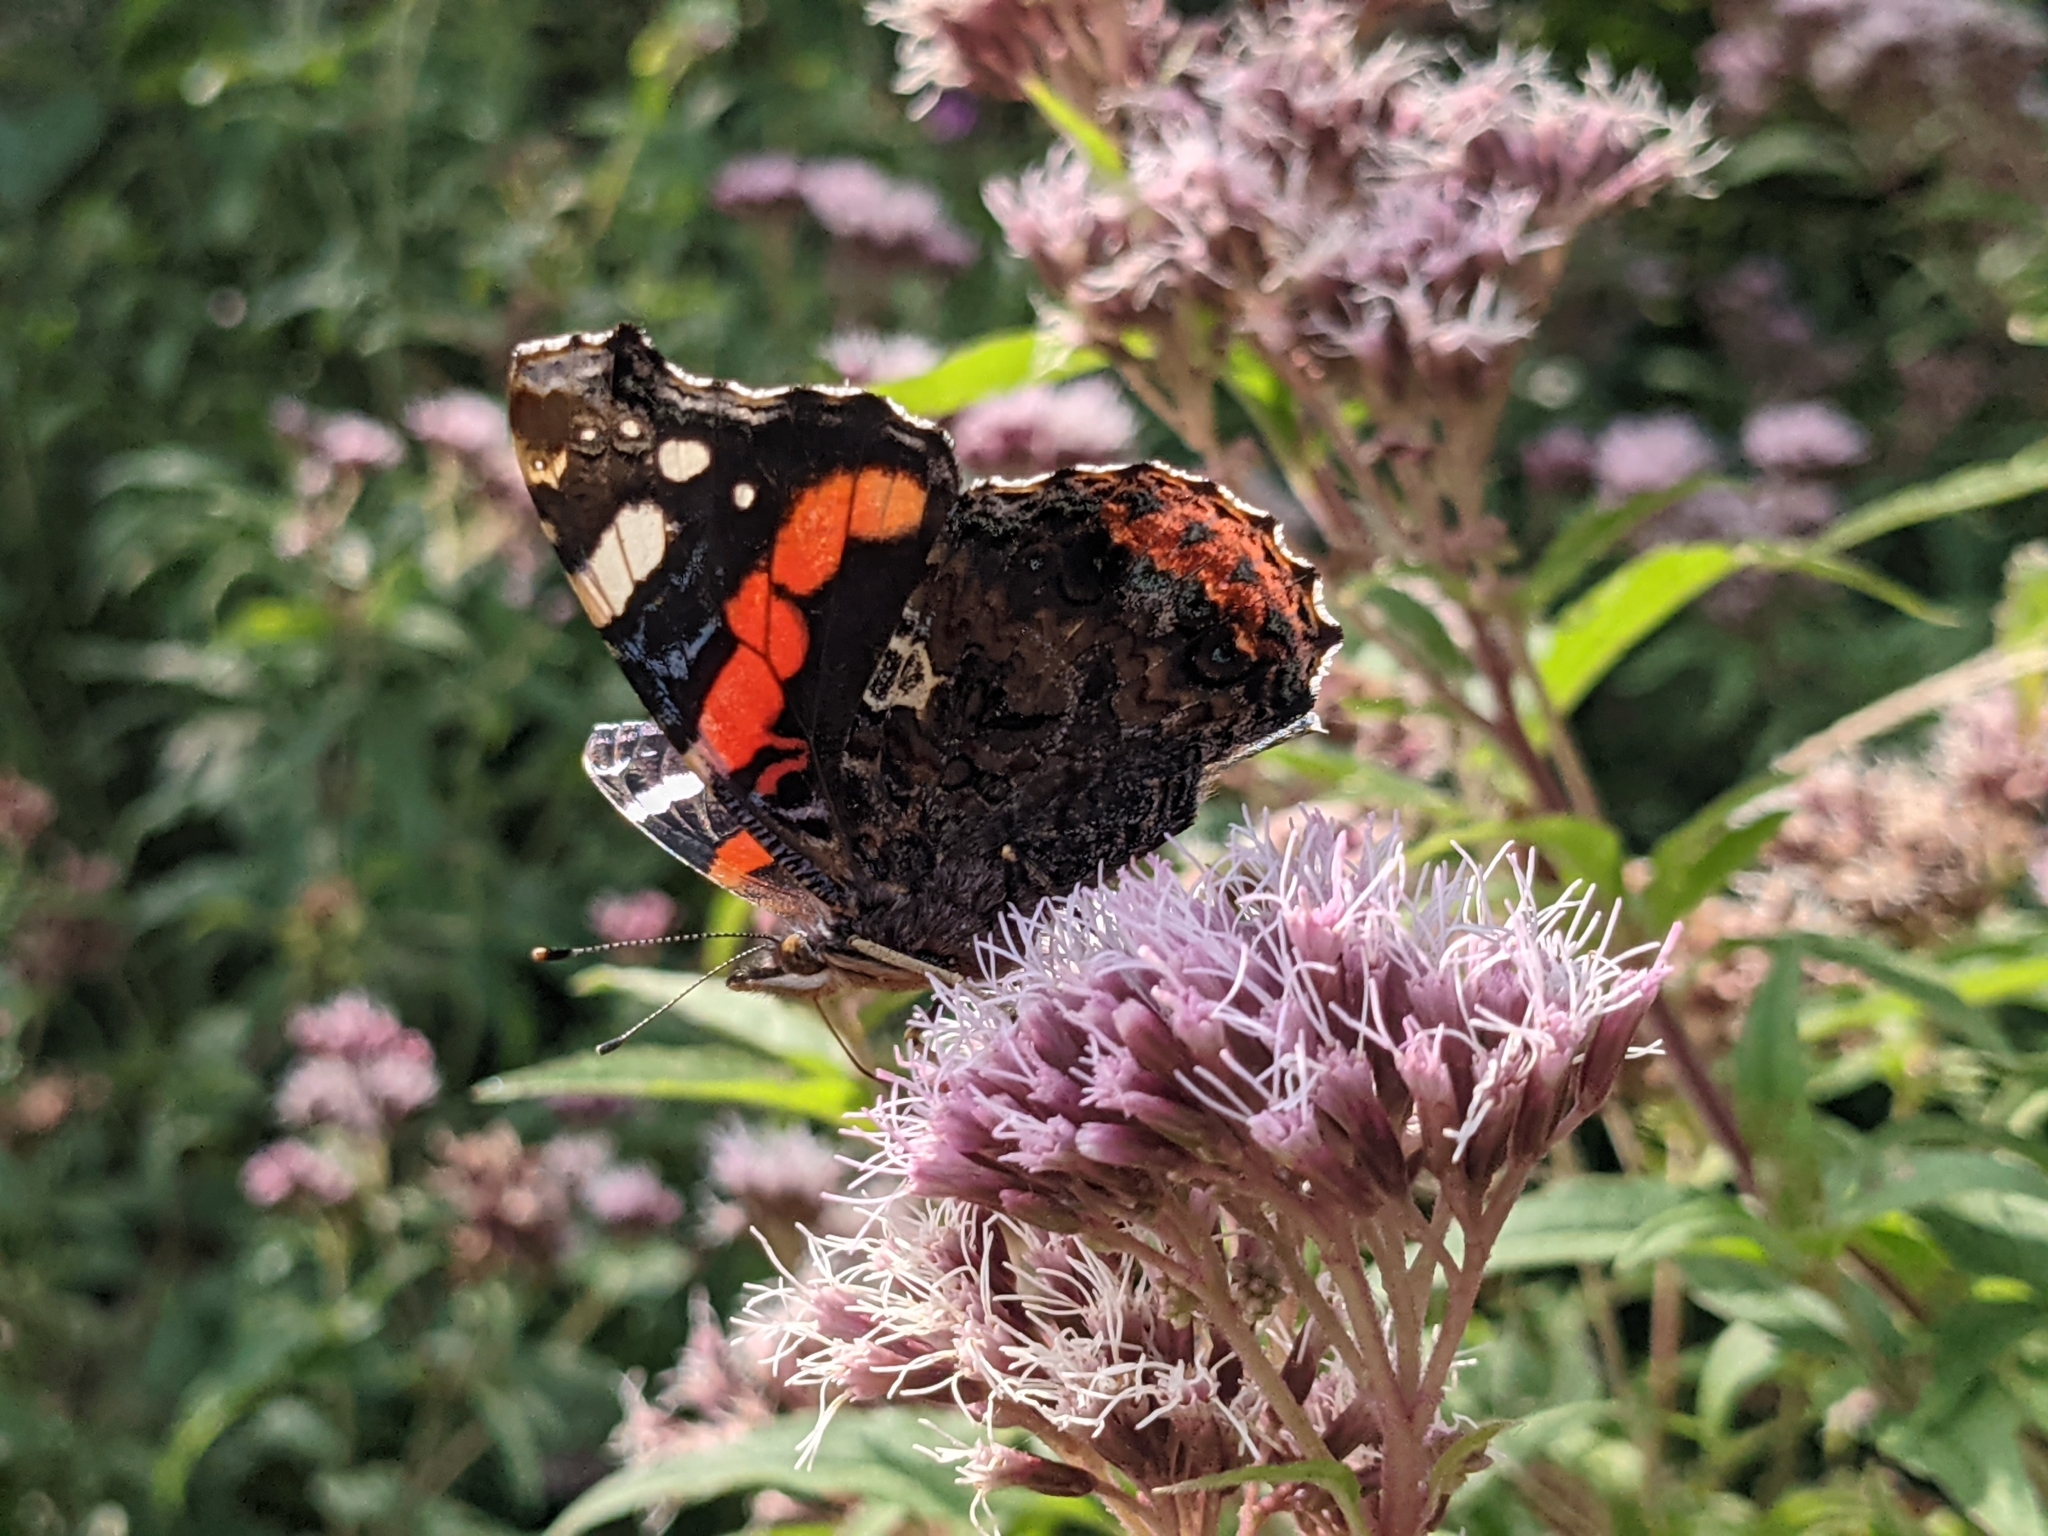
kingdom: Animalia
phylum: Arthropoda
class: Insecta
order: Lepidoptera
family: Nymphalidae
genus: Vanessa
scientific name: Vanessa atalanta
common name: Red admiral
